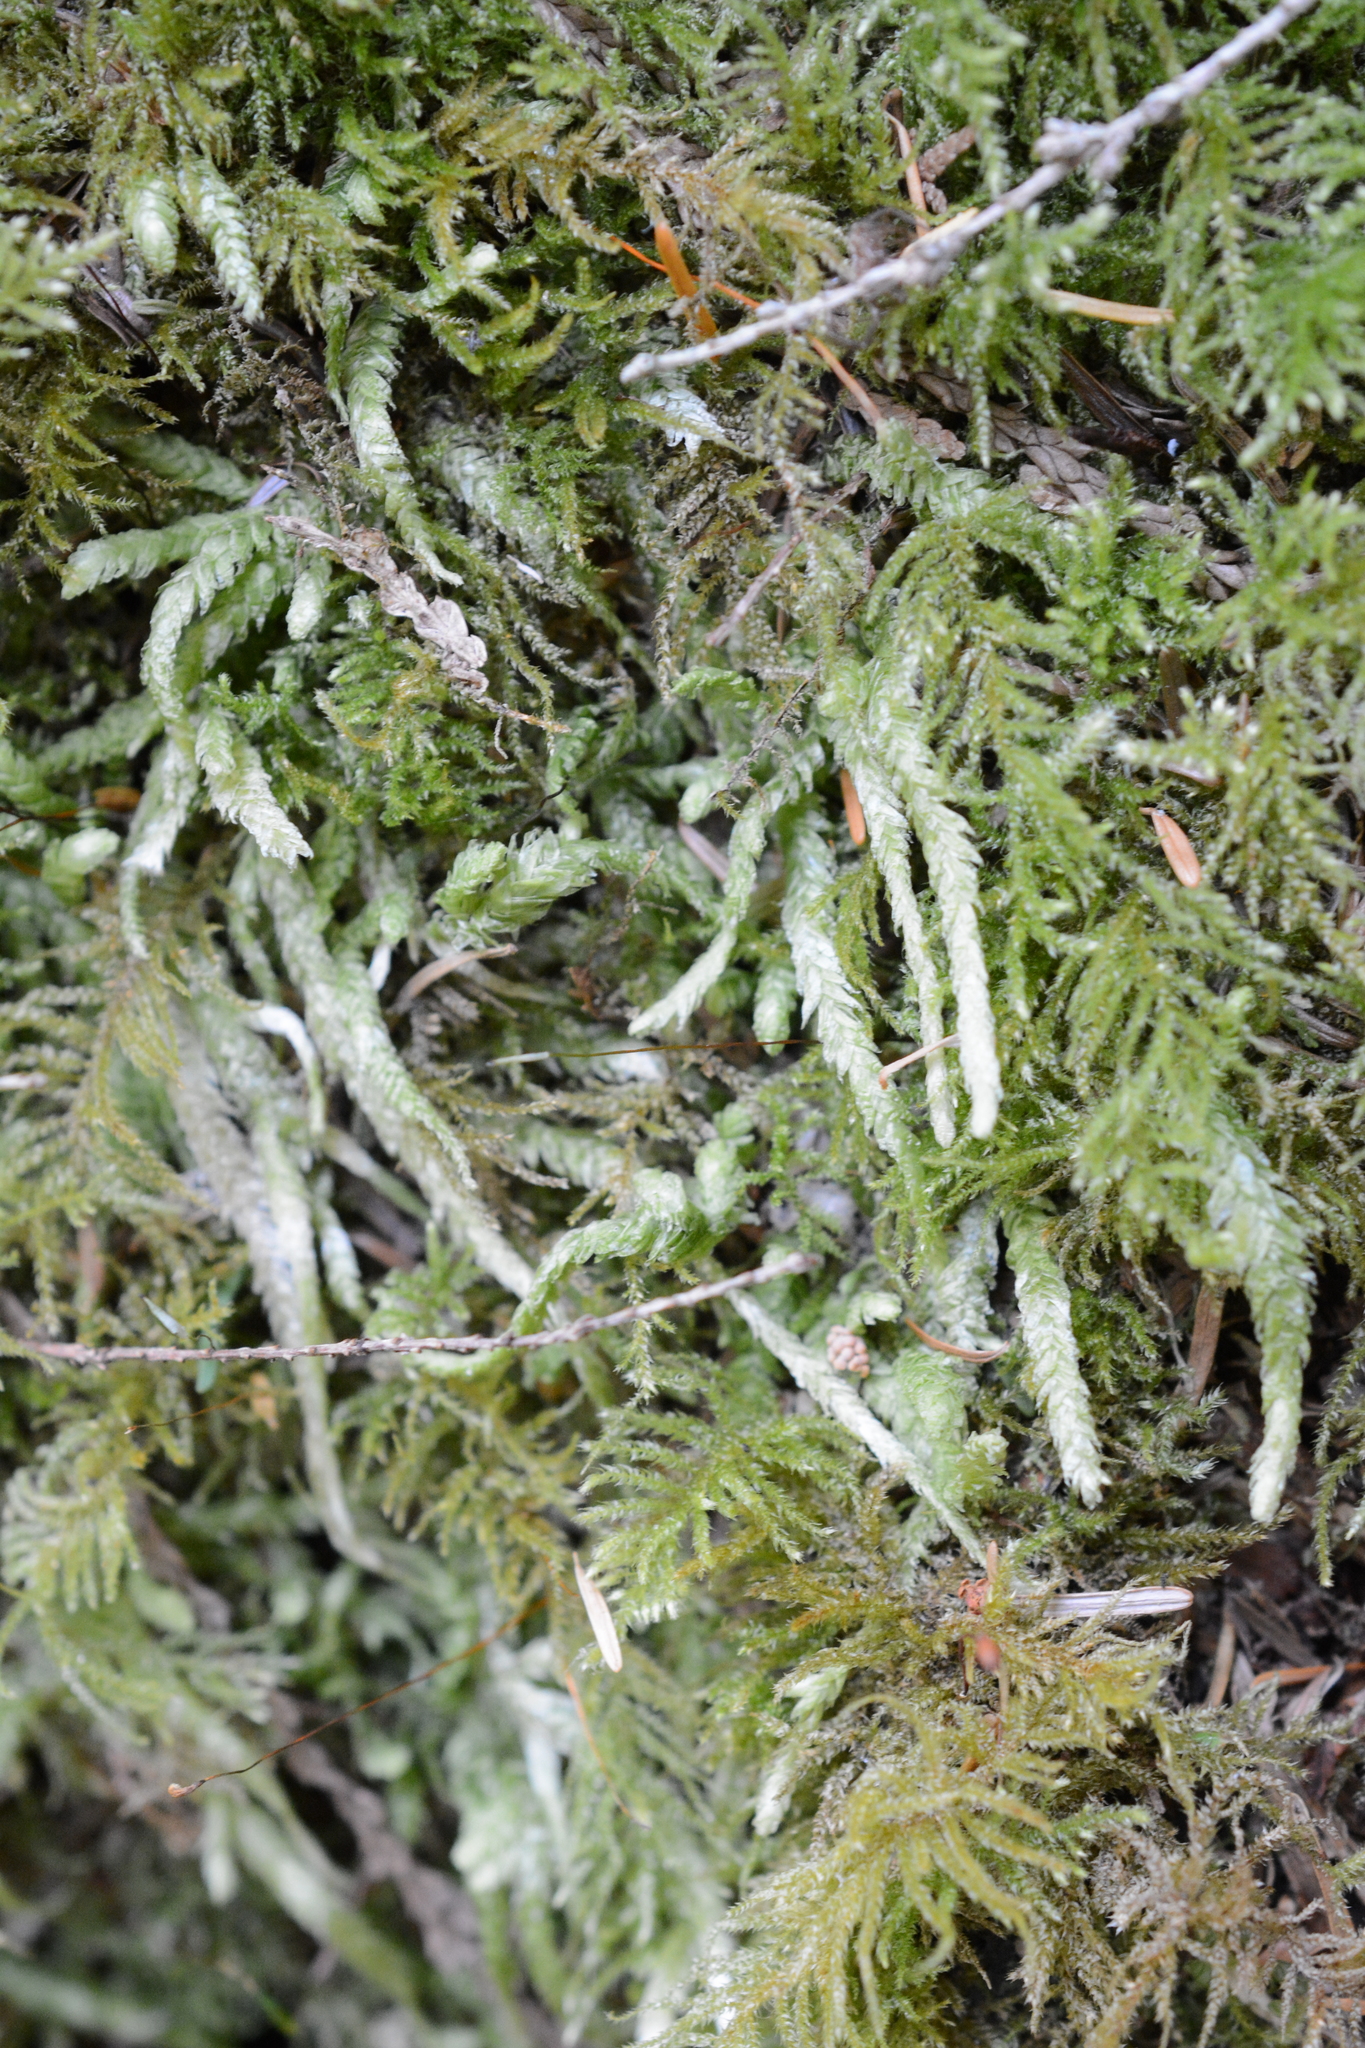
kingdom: Plantae
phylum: Bryophyta
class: Bryopsida
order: Hypnales
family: Plagiotheciaceae
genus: Plagiothecium
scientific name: Plagiothecium undulatum
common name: Waved silk-moss
